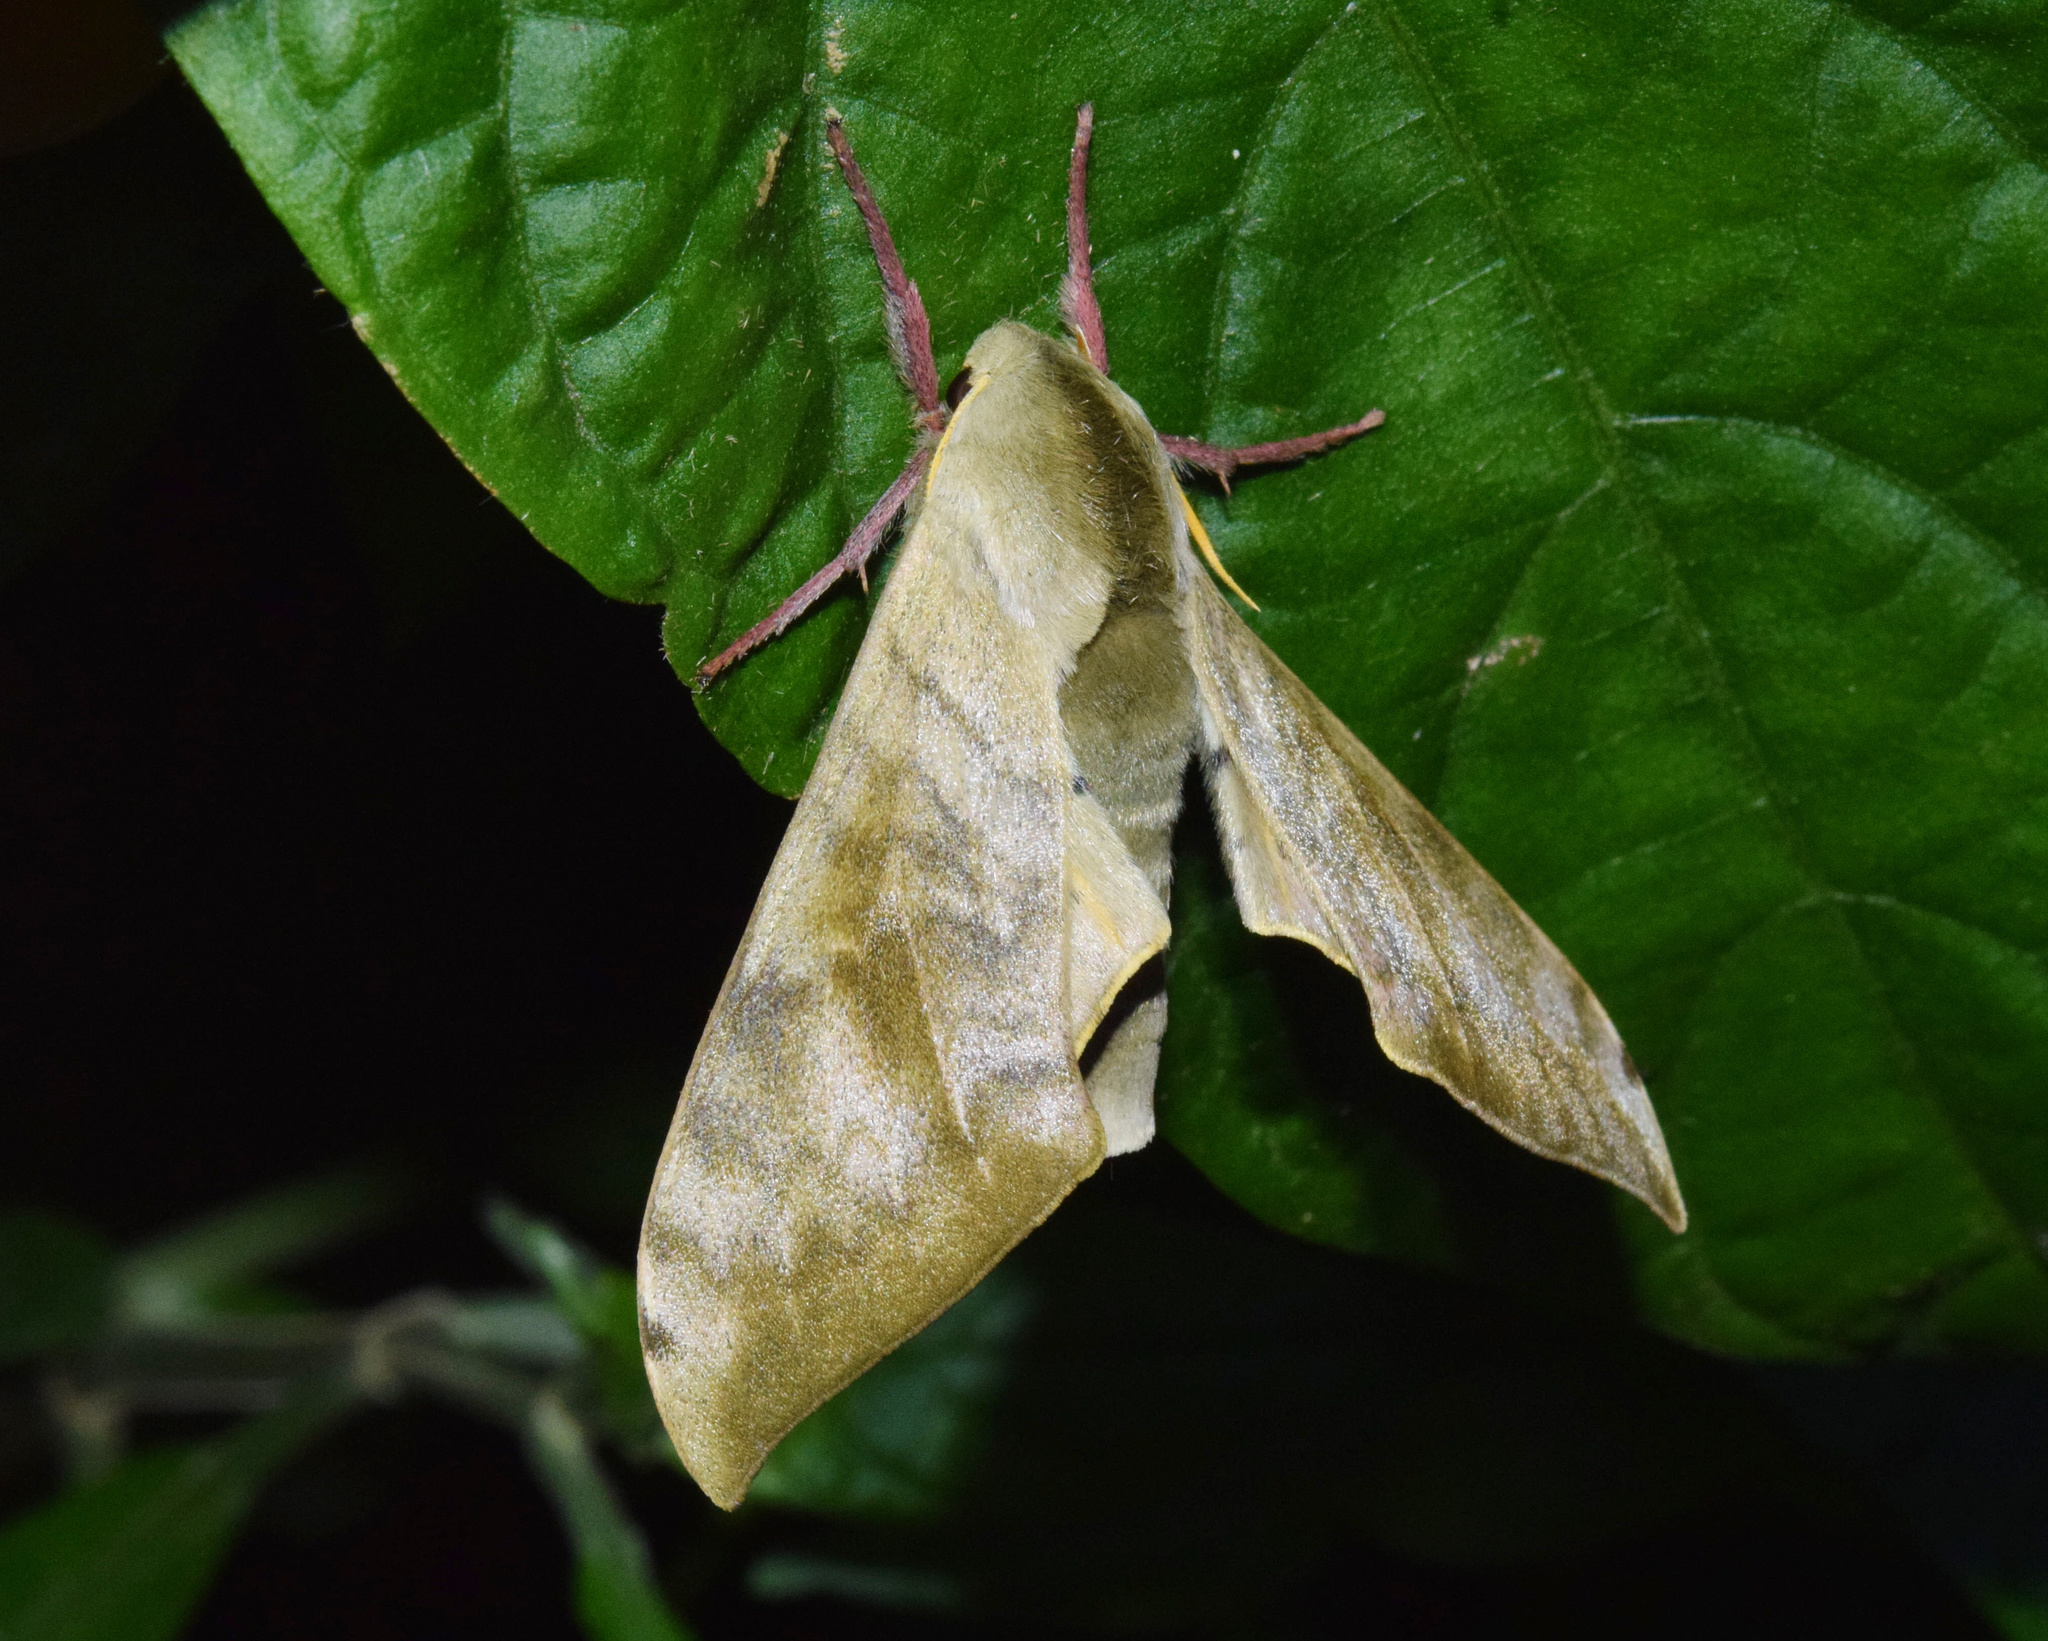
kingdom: Animalia
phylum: Arthropoda
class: Insecta
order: Lepidoptera
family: Sphingidae
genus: Pseudoclanis
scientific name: Pseudoclanis postica
